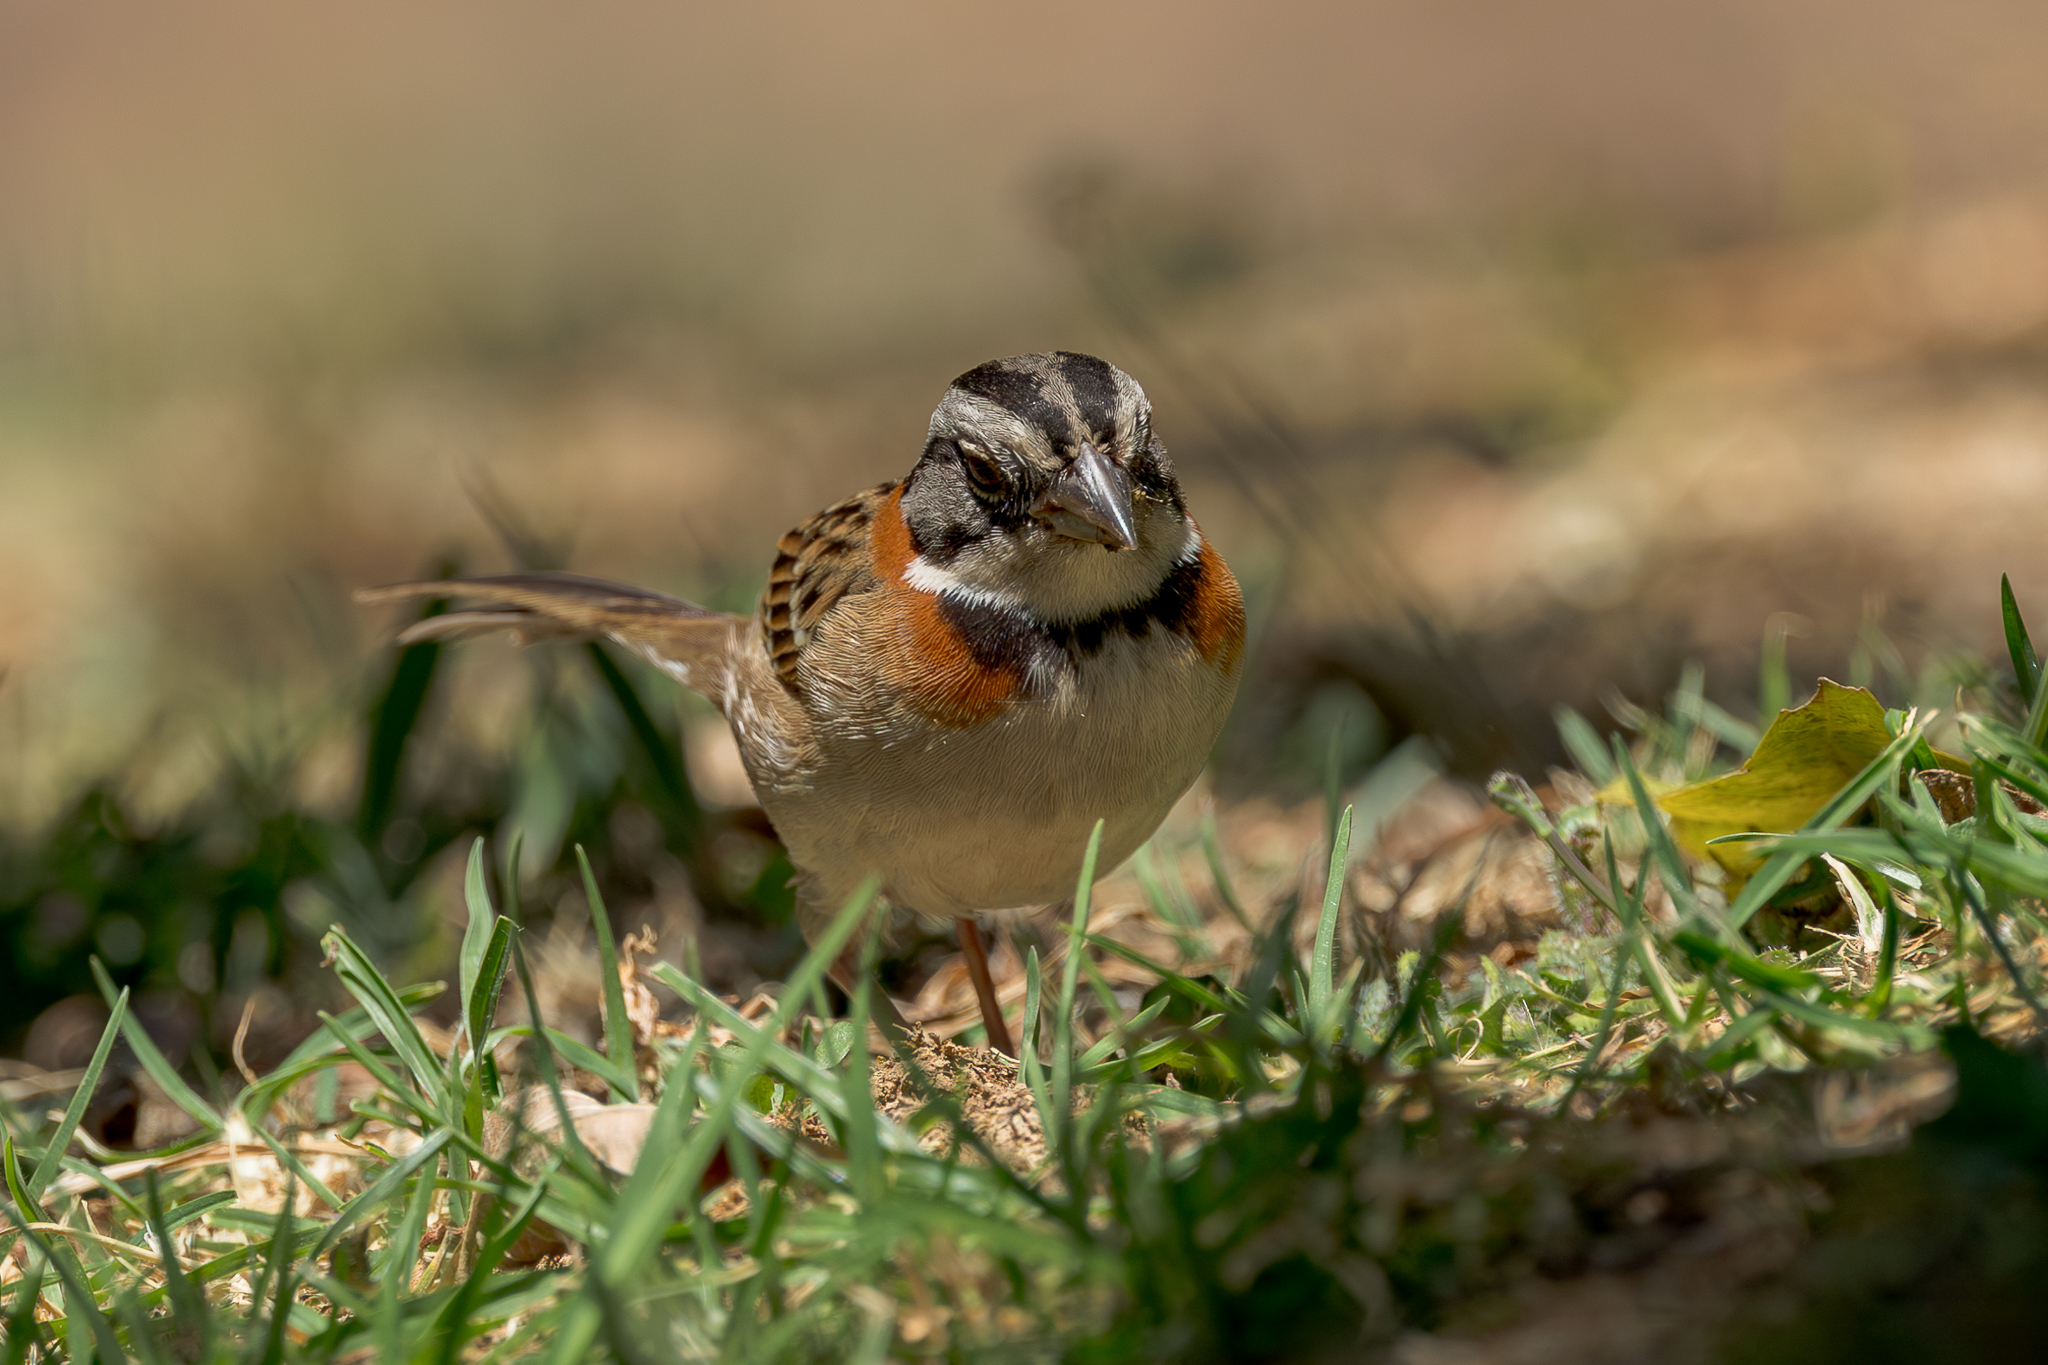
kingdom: Animalia
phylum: Chordata
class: Aves
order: Passeriformes
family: Passerellidae
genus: Zonotrichia
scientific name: Zonotrichia capensis
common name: Rufous-collared sparrow
